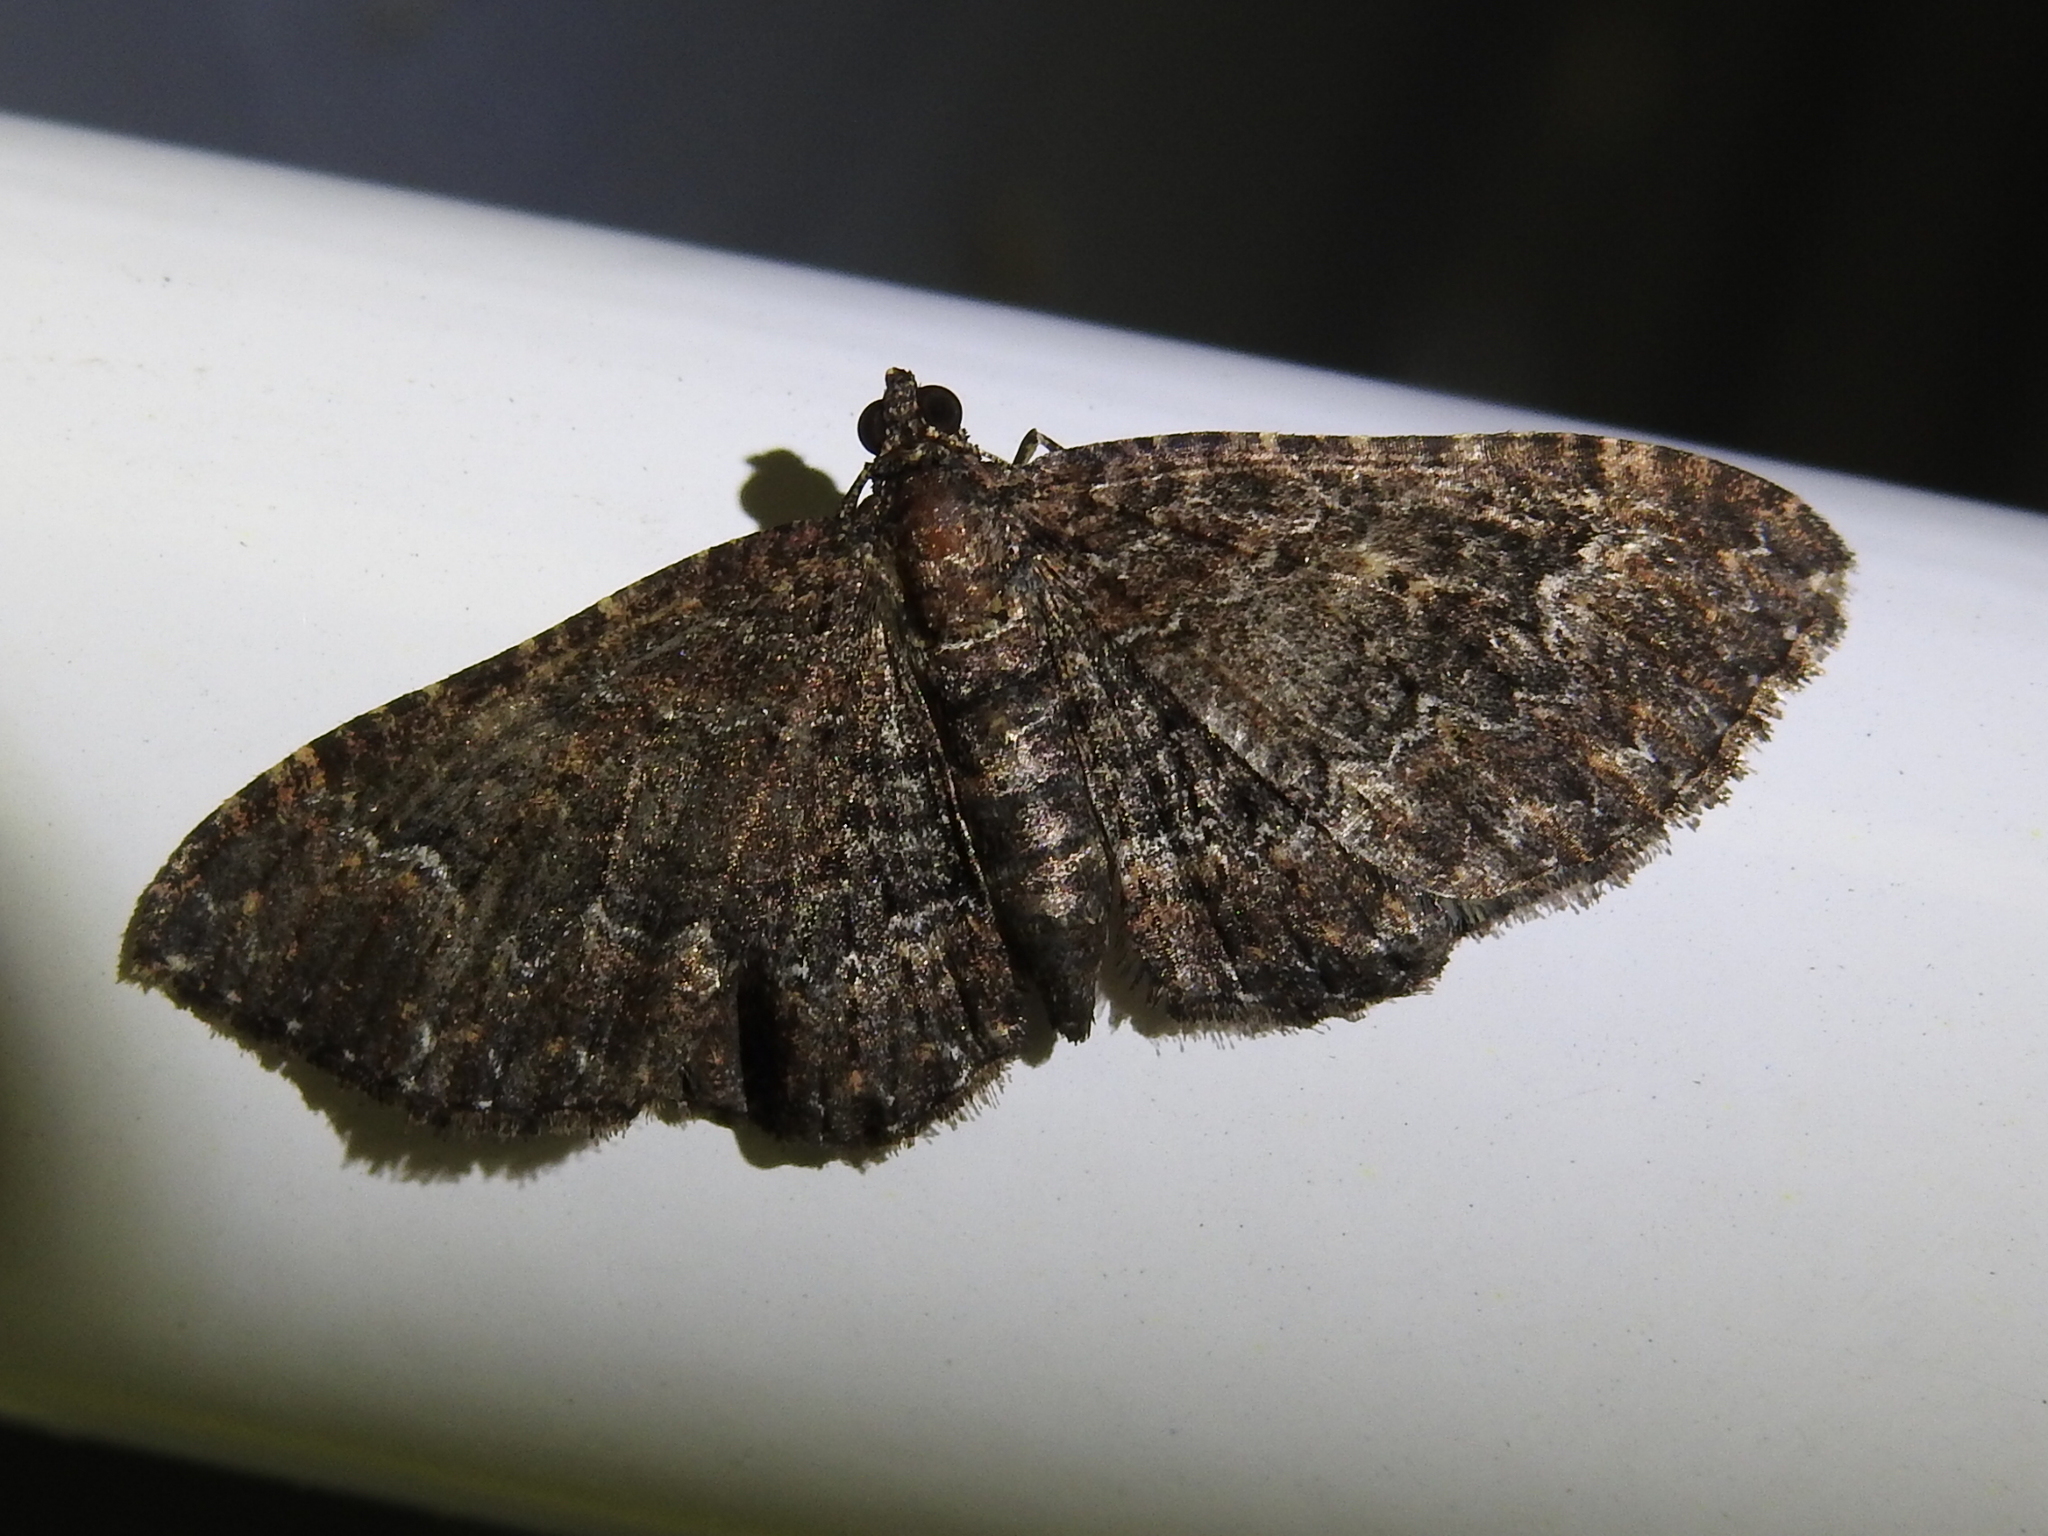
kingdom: Animalia
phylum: Arthropoda
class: Insecta
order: Lepidoptera
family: Geometridae
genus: Disclisioprocta
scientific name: Disclisioprocta stellata
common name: Somber carpet
